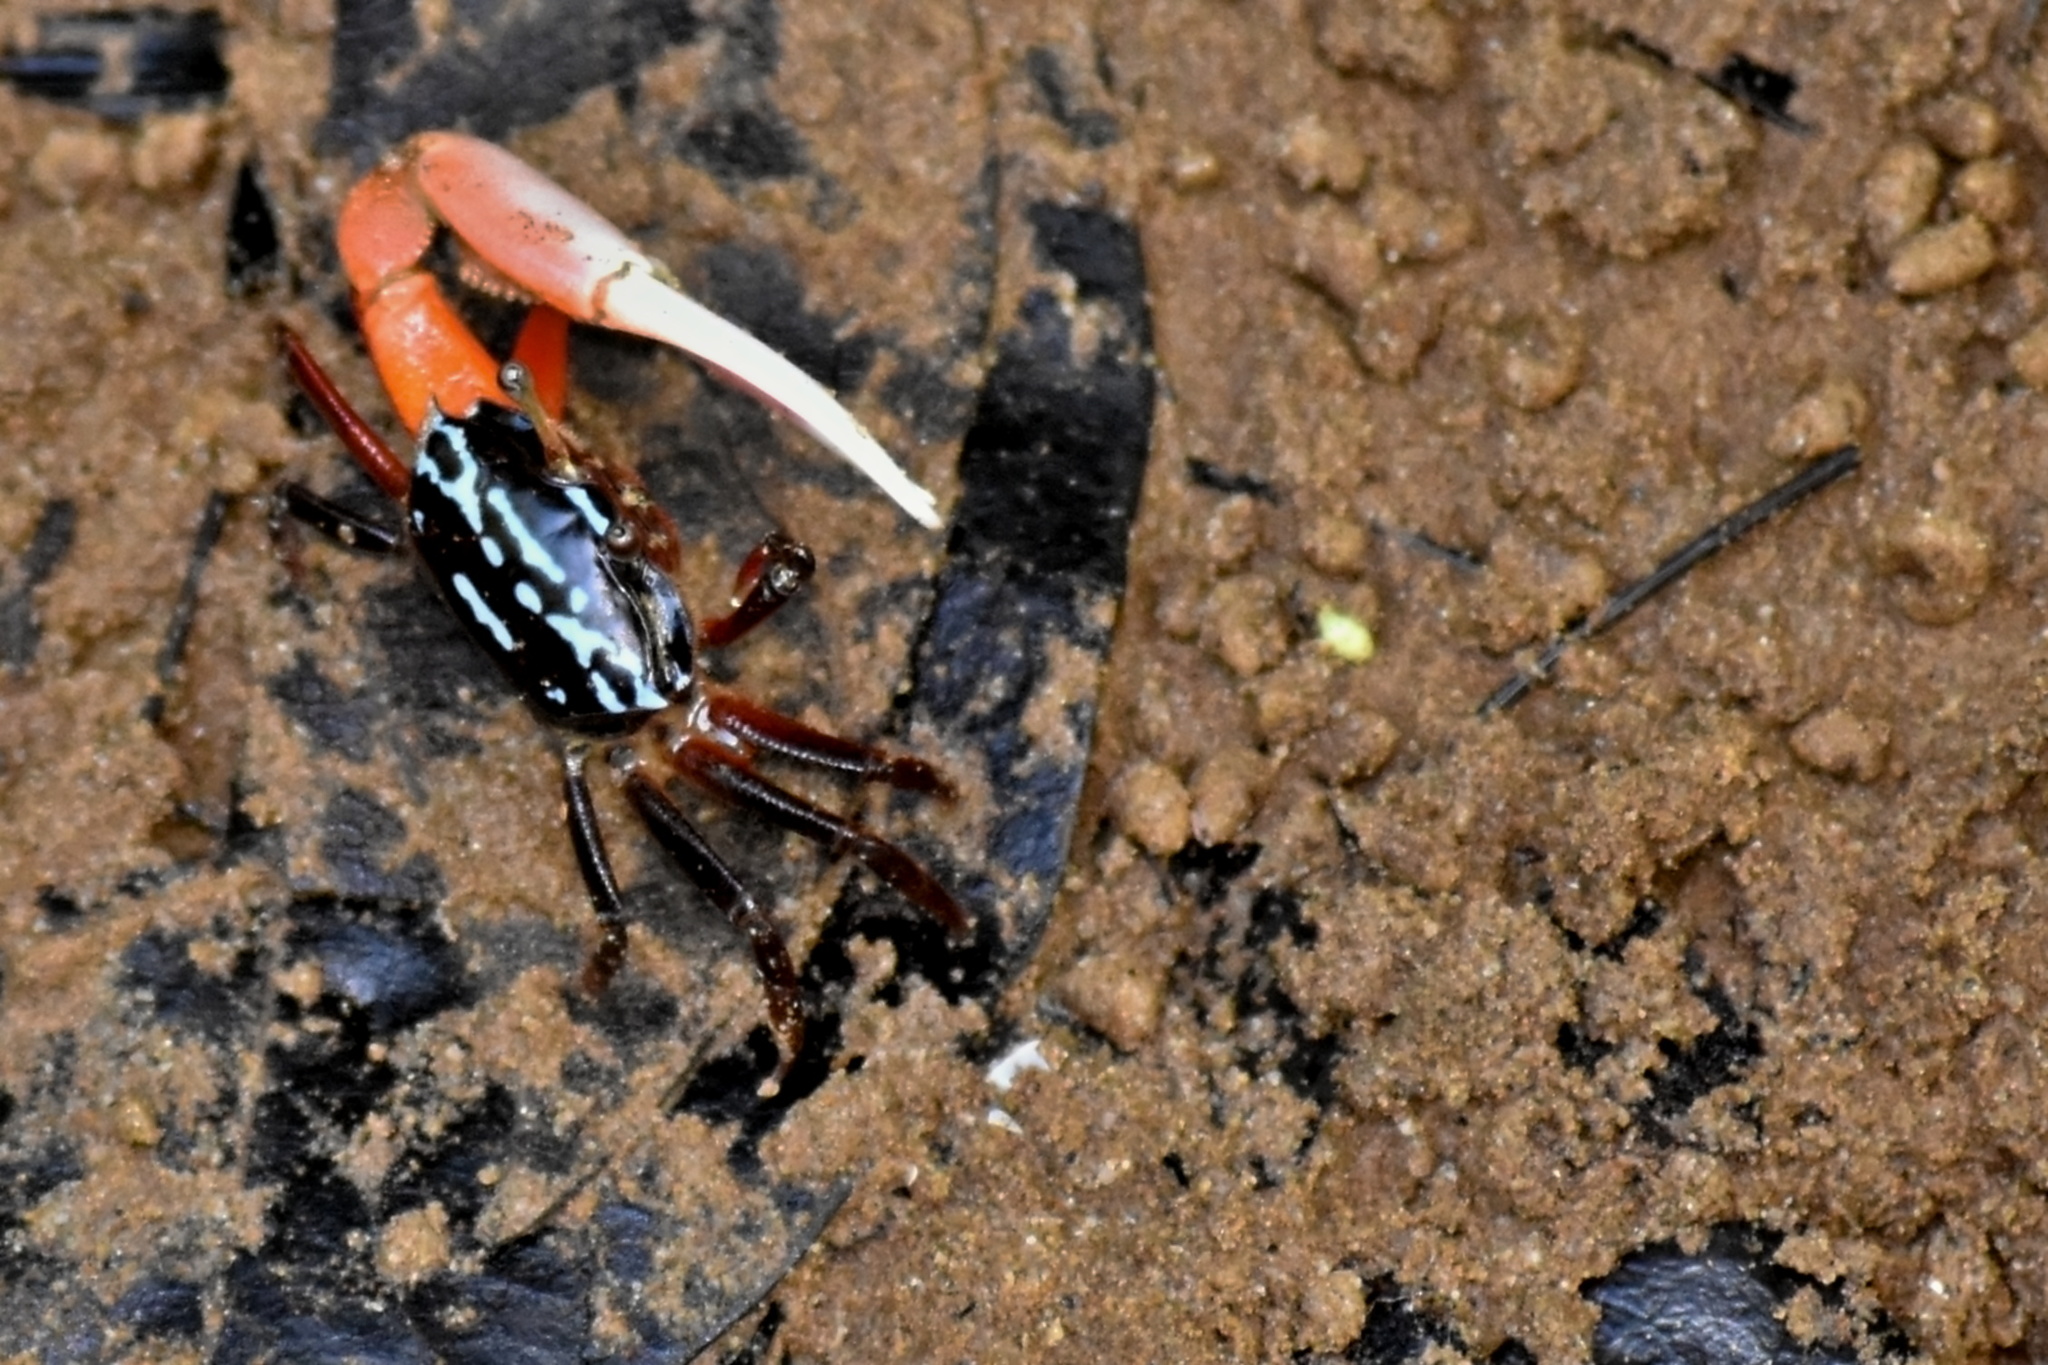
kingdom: Animalia
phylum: Arthropoda
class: Malacostraca
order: Decapoda
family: Ocypodidae
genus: Austruca
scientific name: Austruca annulipes
